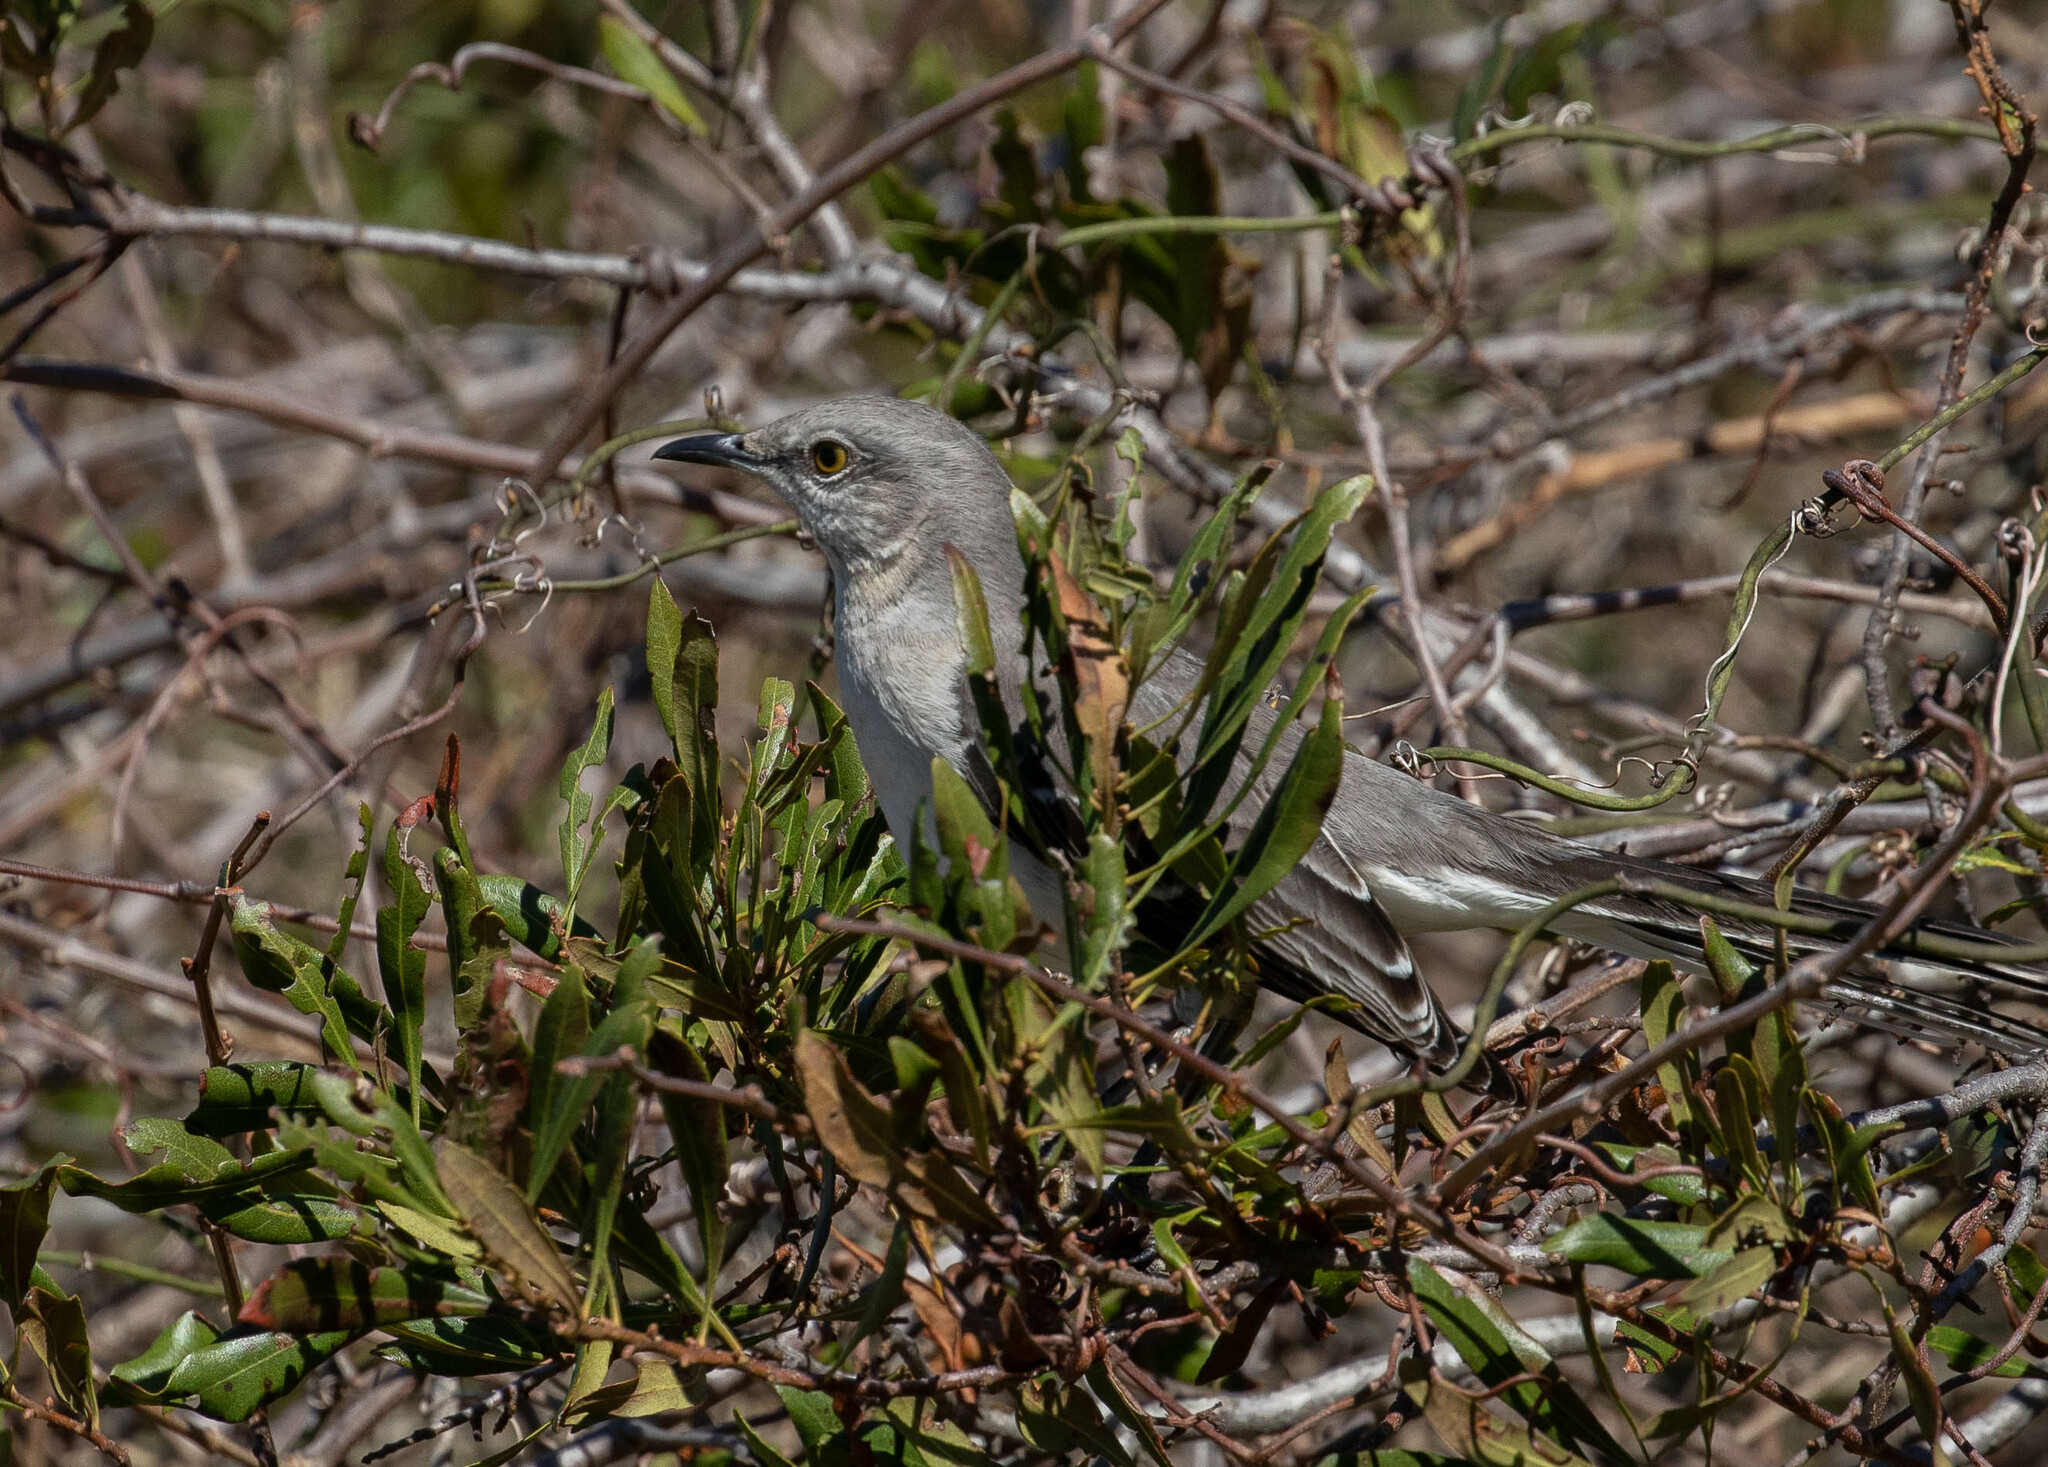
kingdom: Animalia
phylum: Chordata
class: Aves
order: Passeriformes
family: Mimidae
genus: Mimus
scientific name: Mimus polyglottos
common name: Northern mockingbird
